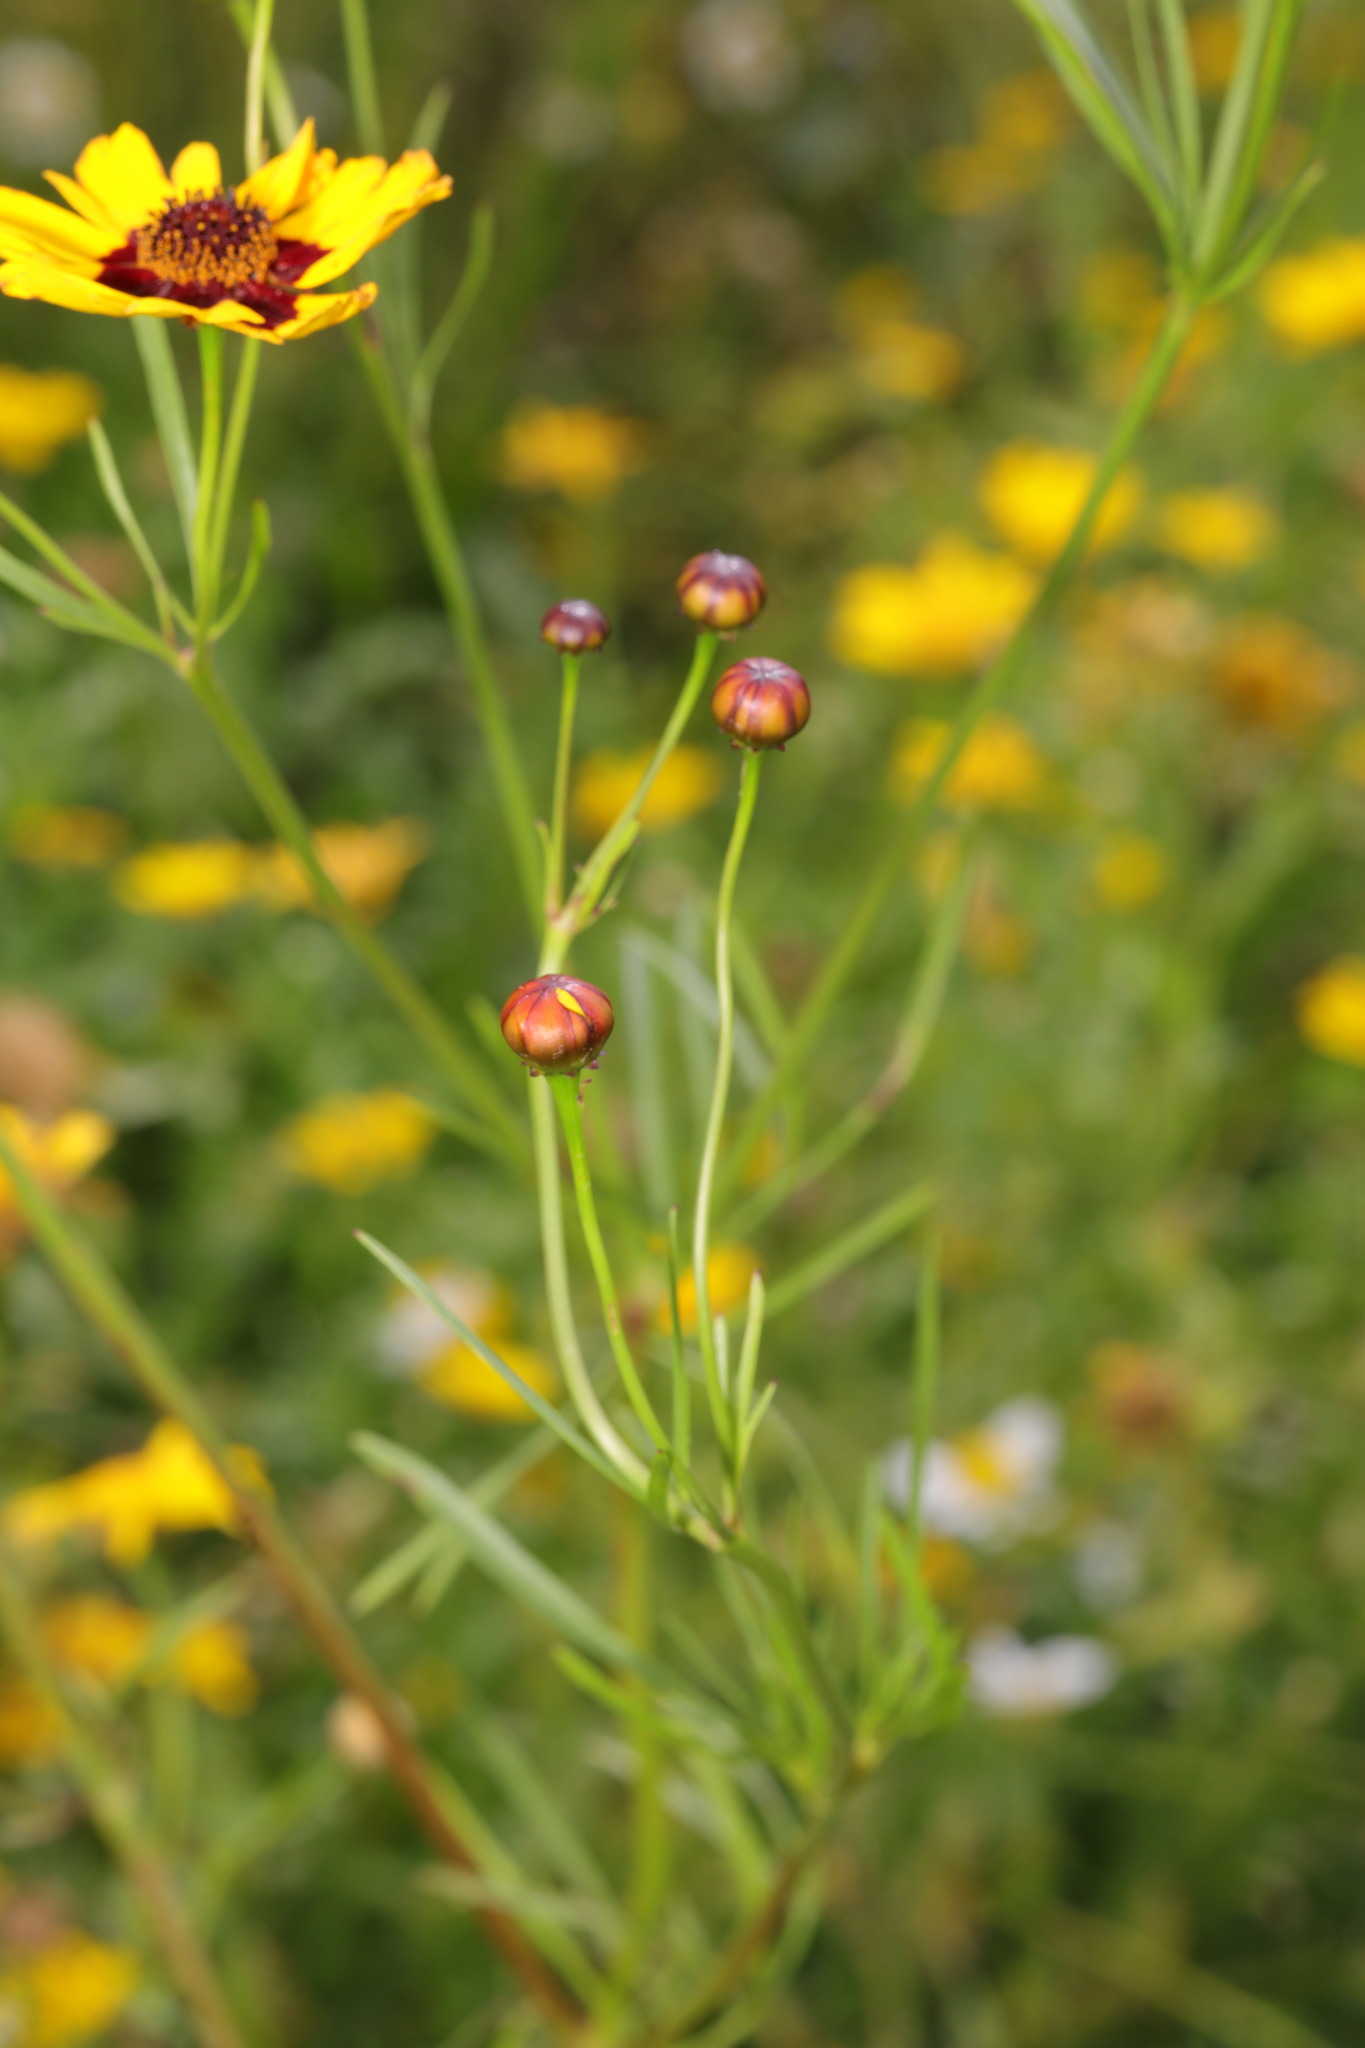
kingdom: Plantae
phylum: Tracheophyta
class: Magnoliopsida
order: Asterales
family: Asteraceae
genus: Coreopsis
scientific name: Coreopsis tinctoria
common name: Garden tickseed
